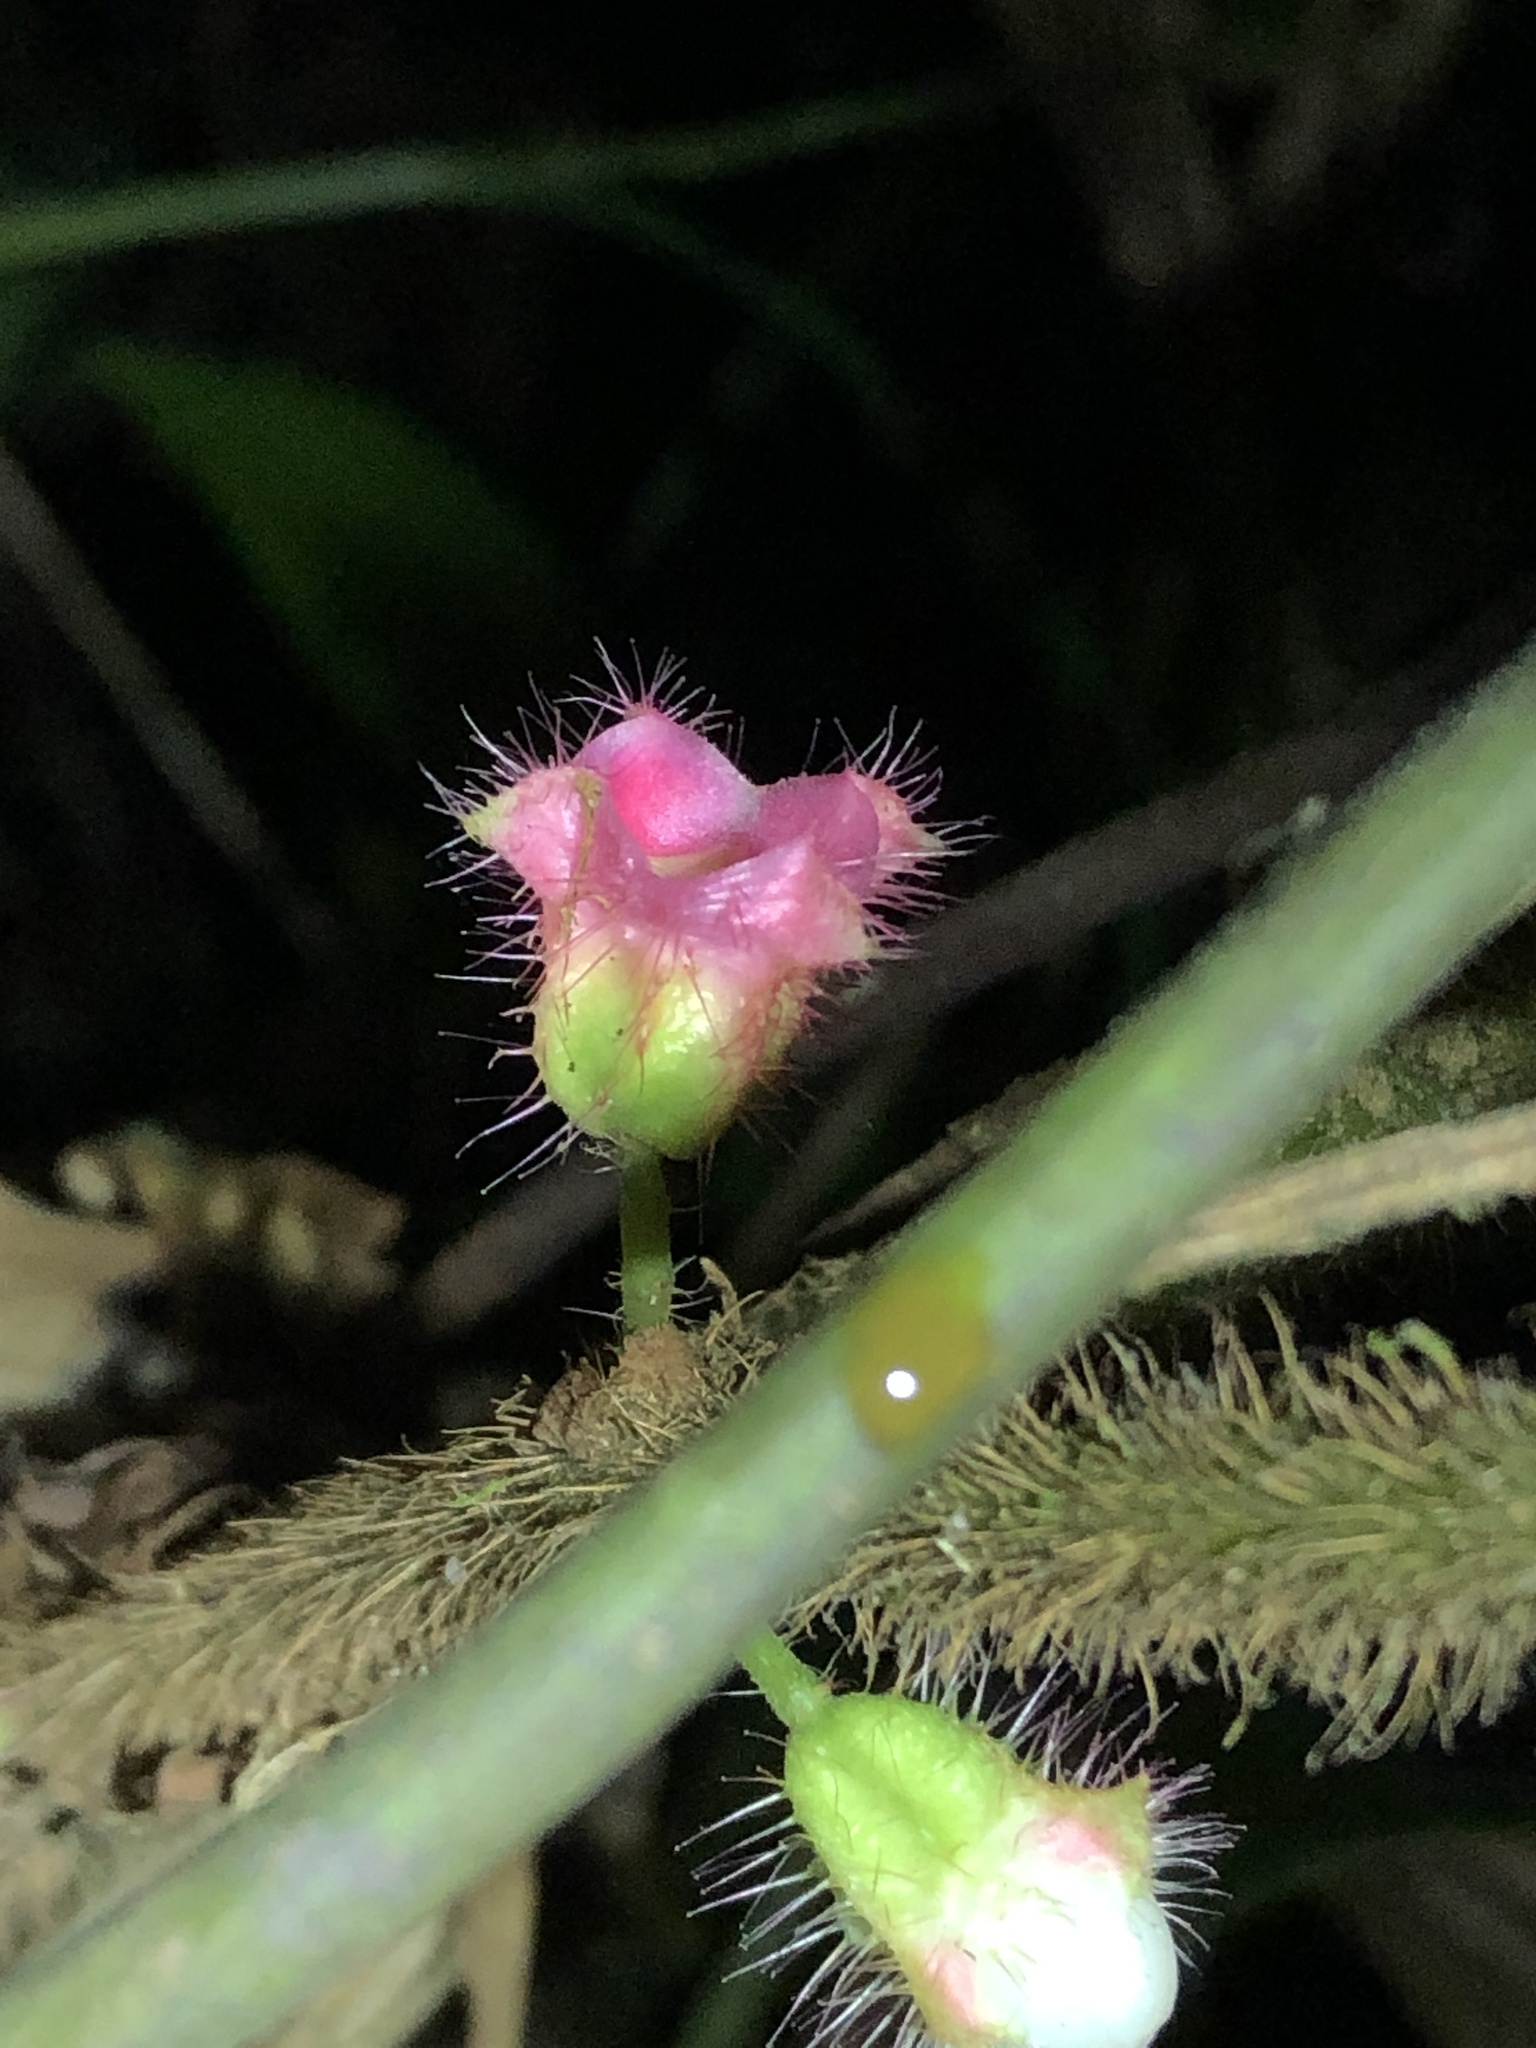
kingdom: Plantae
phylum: Tracheophyta
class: Magnoliopsida
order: Myrtales
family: Melastomataceae
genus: Miconia
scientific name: Miconia microphysca
